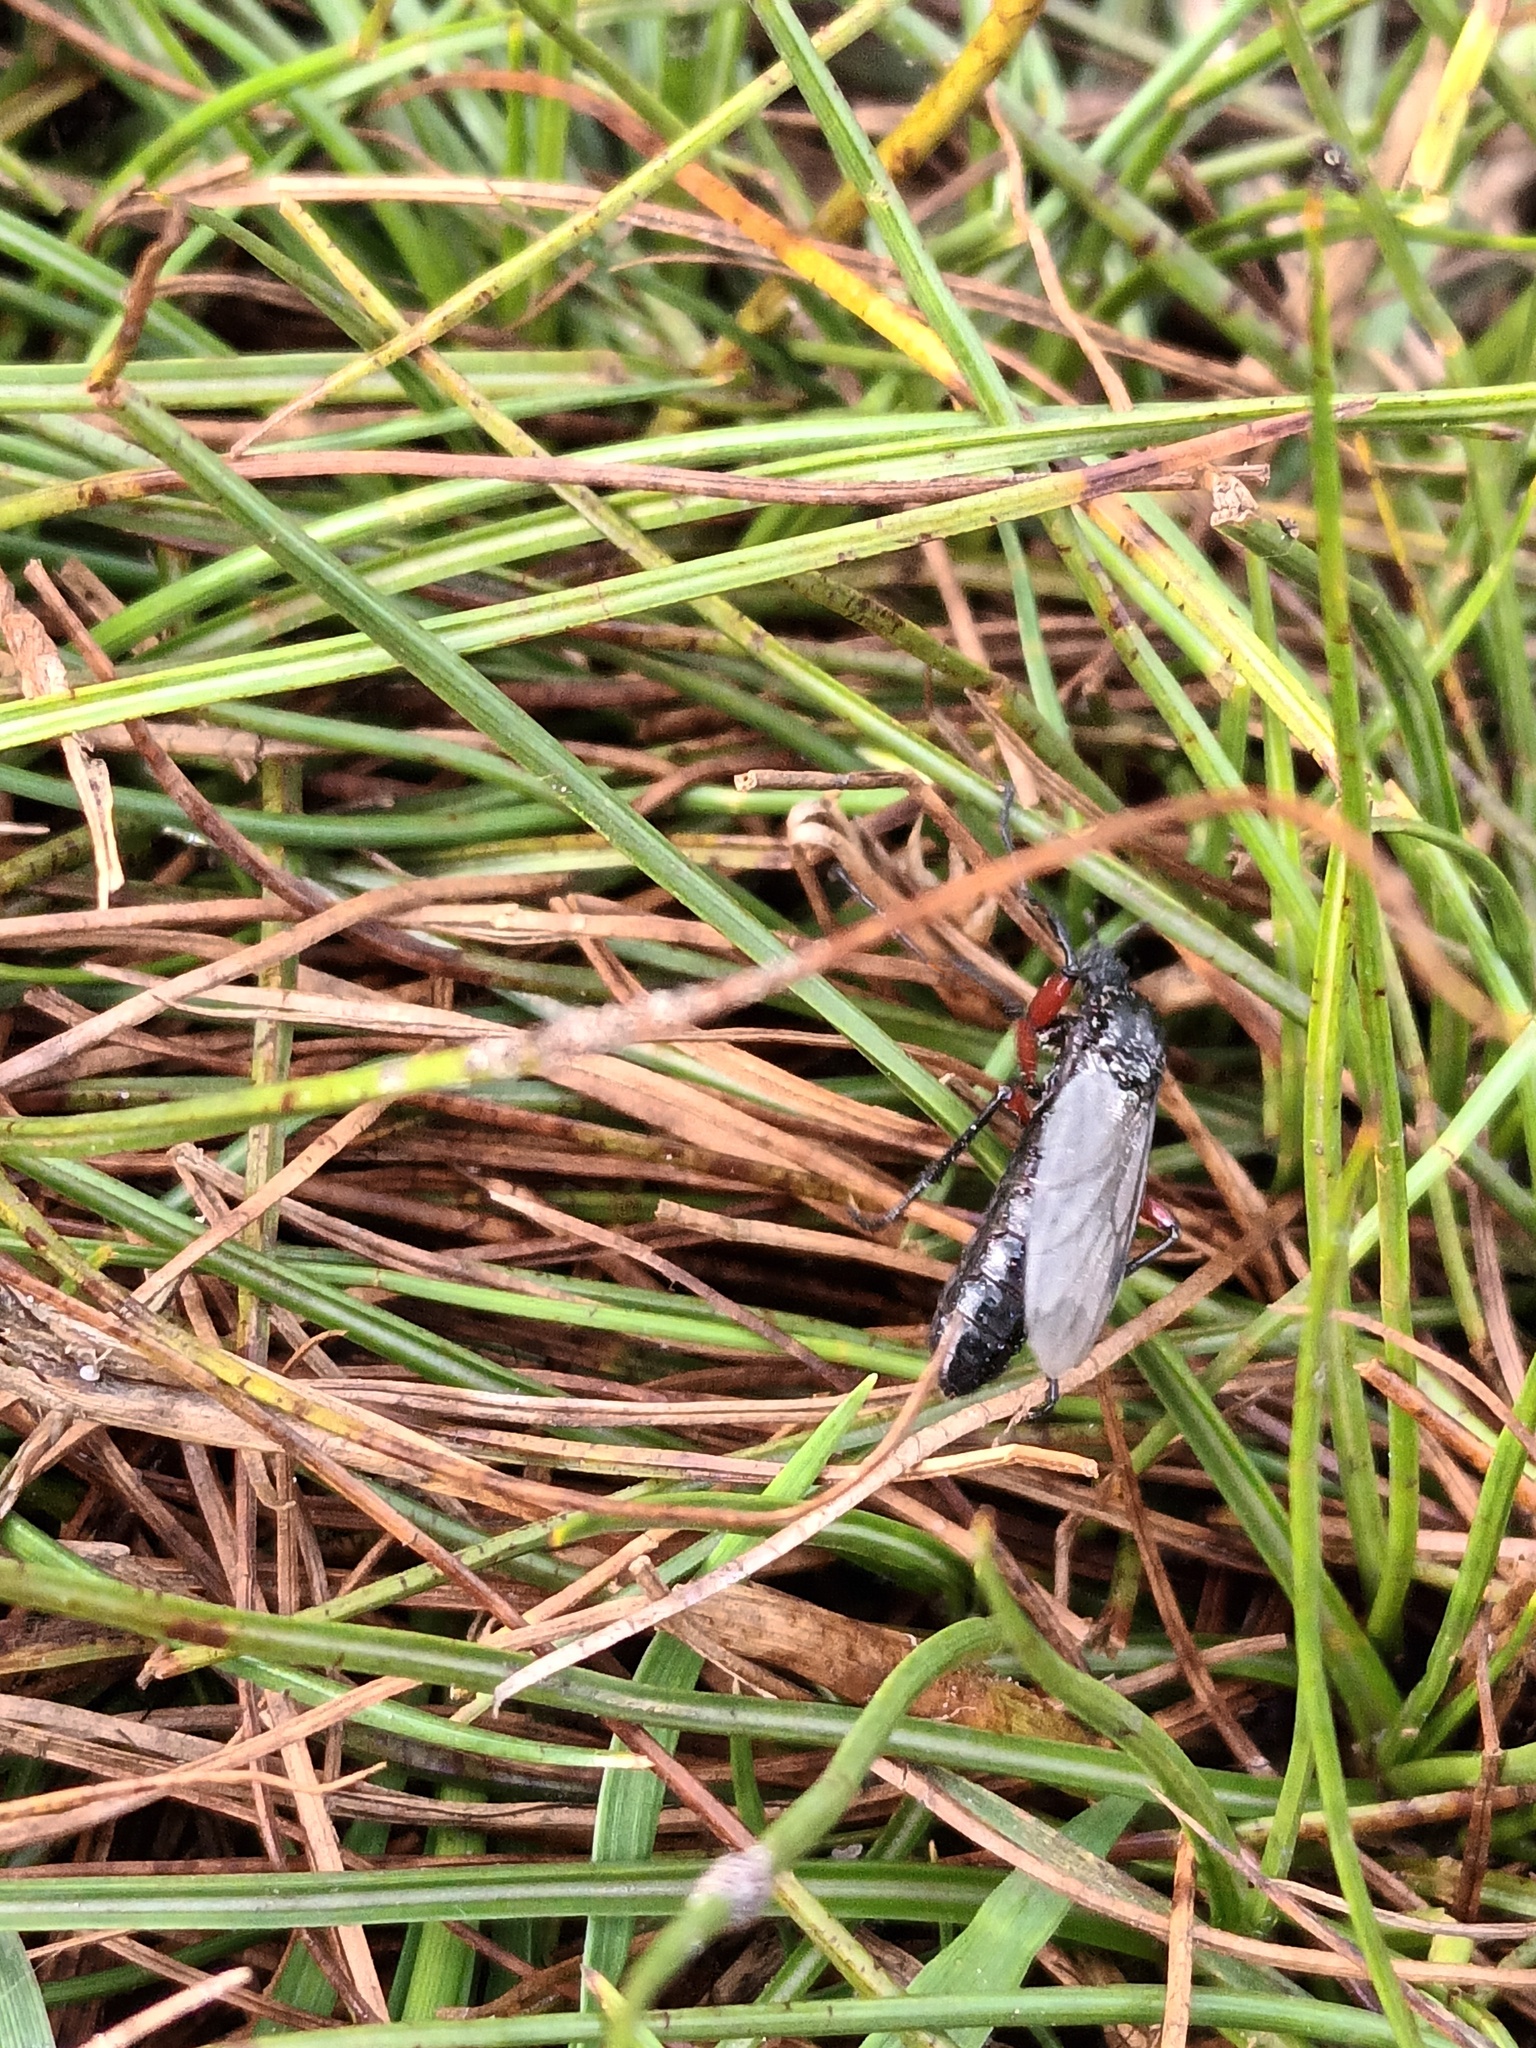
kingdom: Animalia
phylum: Arthropoda
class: Insecta
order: Diptera
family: Bibionidae
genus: Bibio
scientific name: Bibio pomonae
